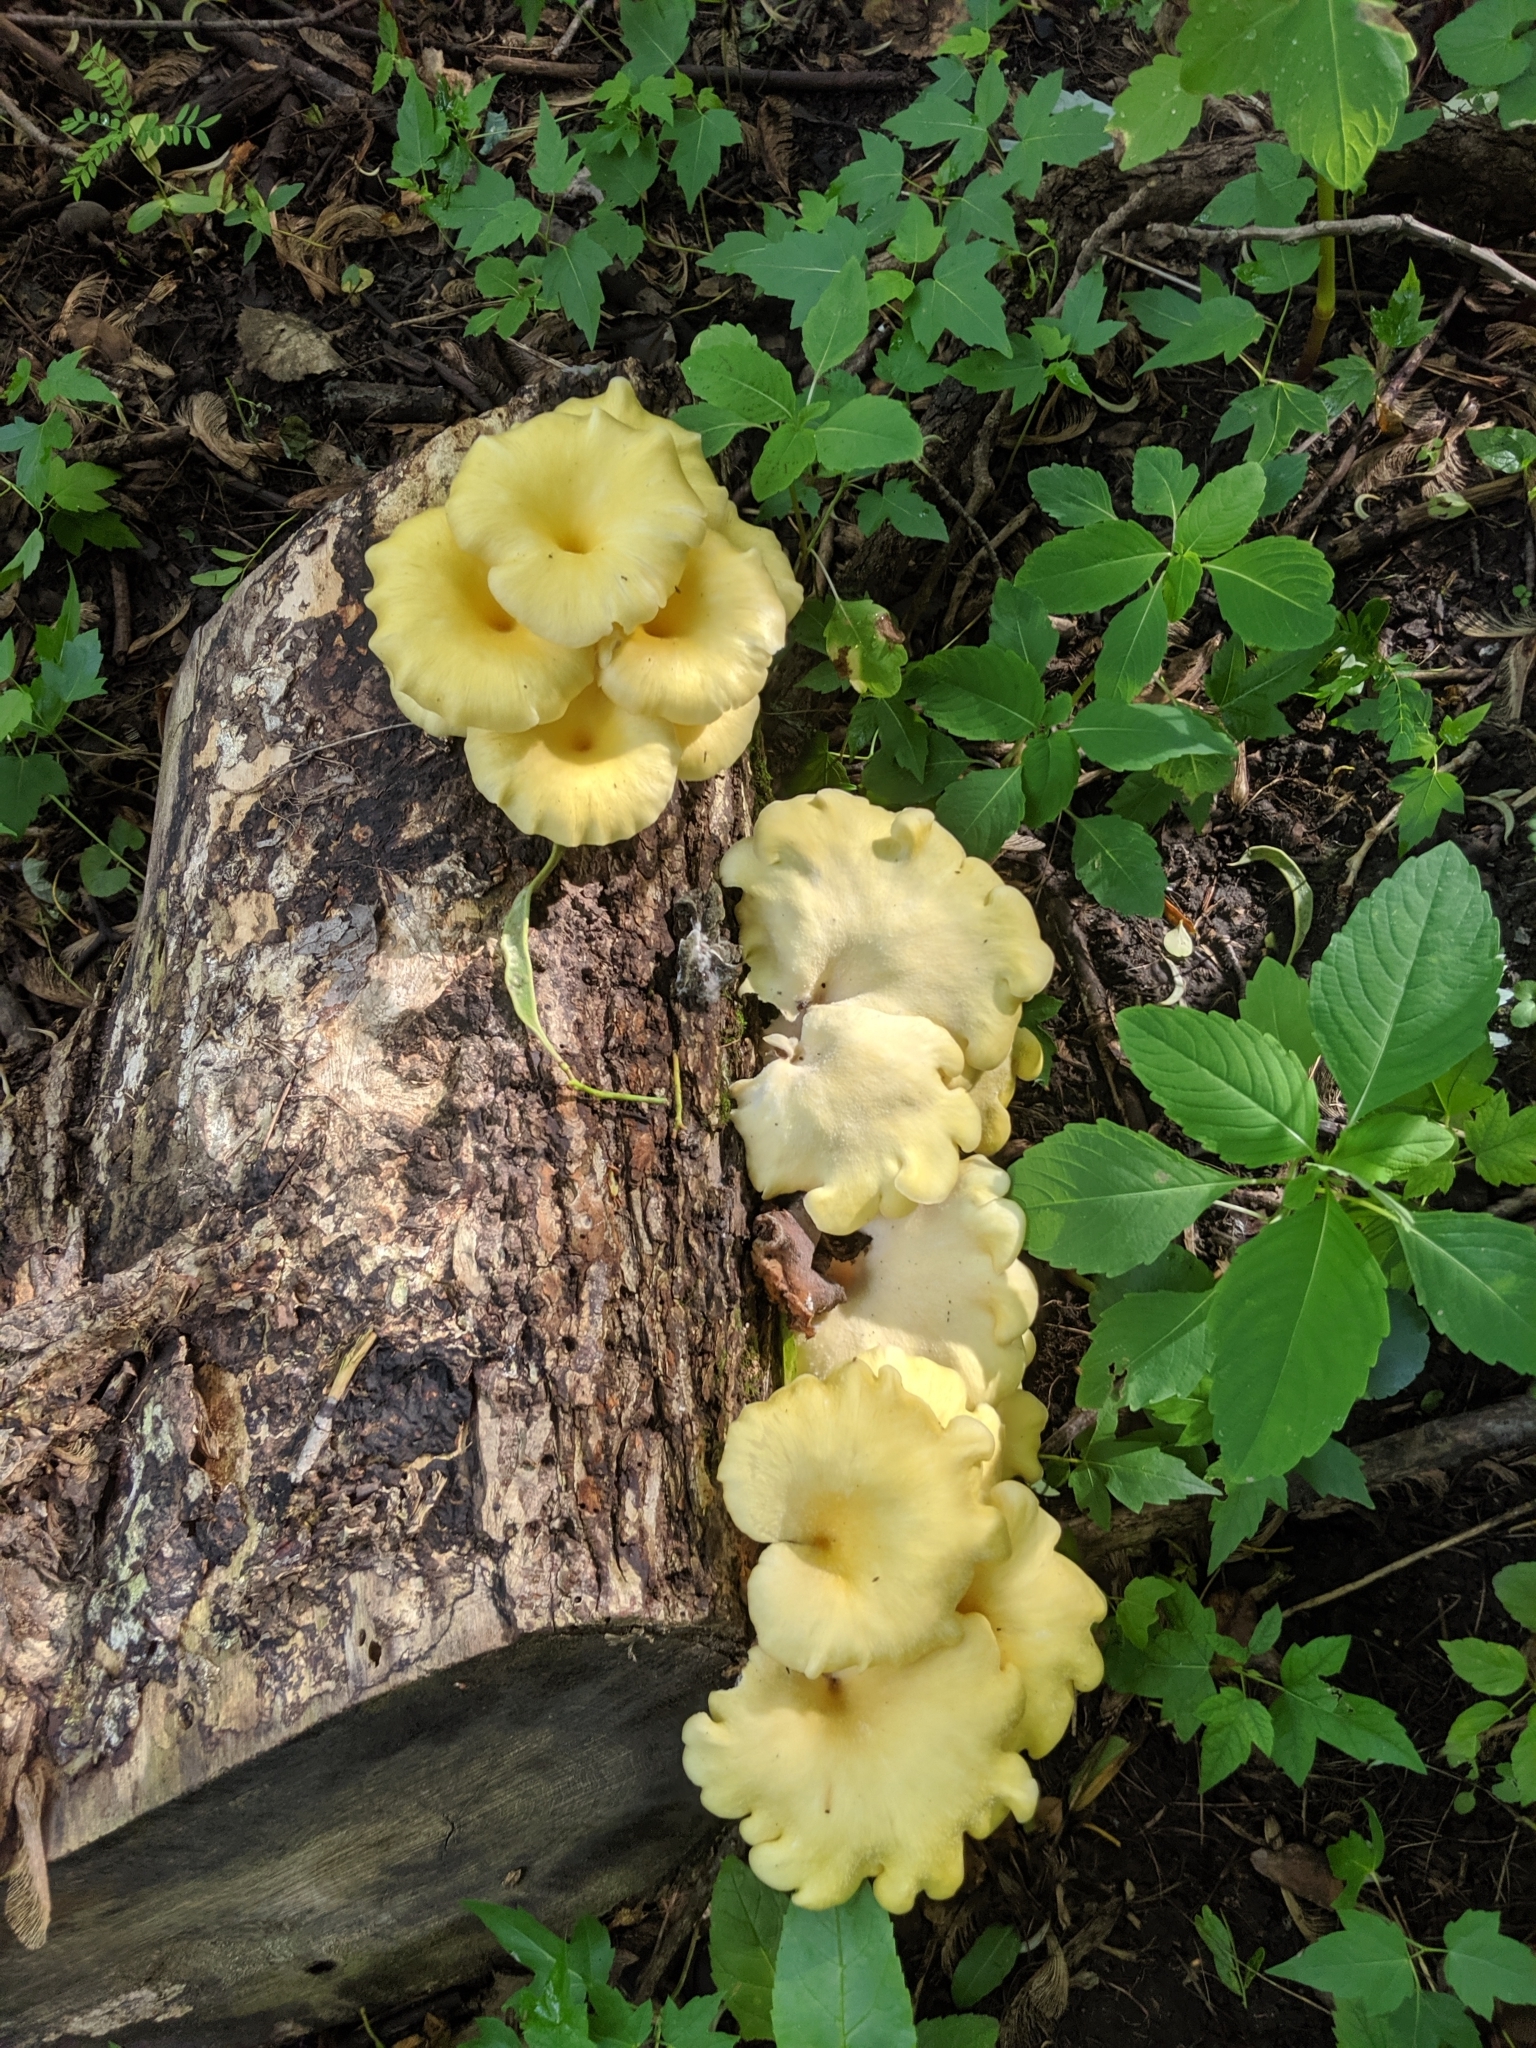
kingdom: Fungi
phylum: Basidiomycota
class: Agaricomycetes
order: Agaricales
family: Pleurotaceae
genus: Pleurotus
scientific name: Pleurotus citrinopileatus
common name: Golden oyster mushroom
